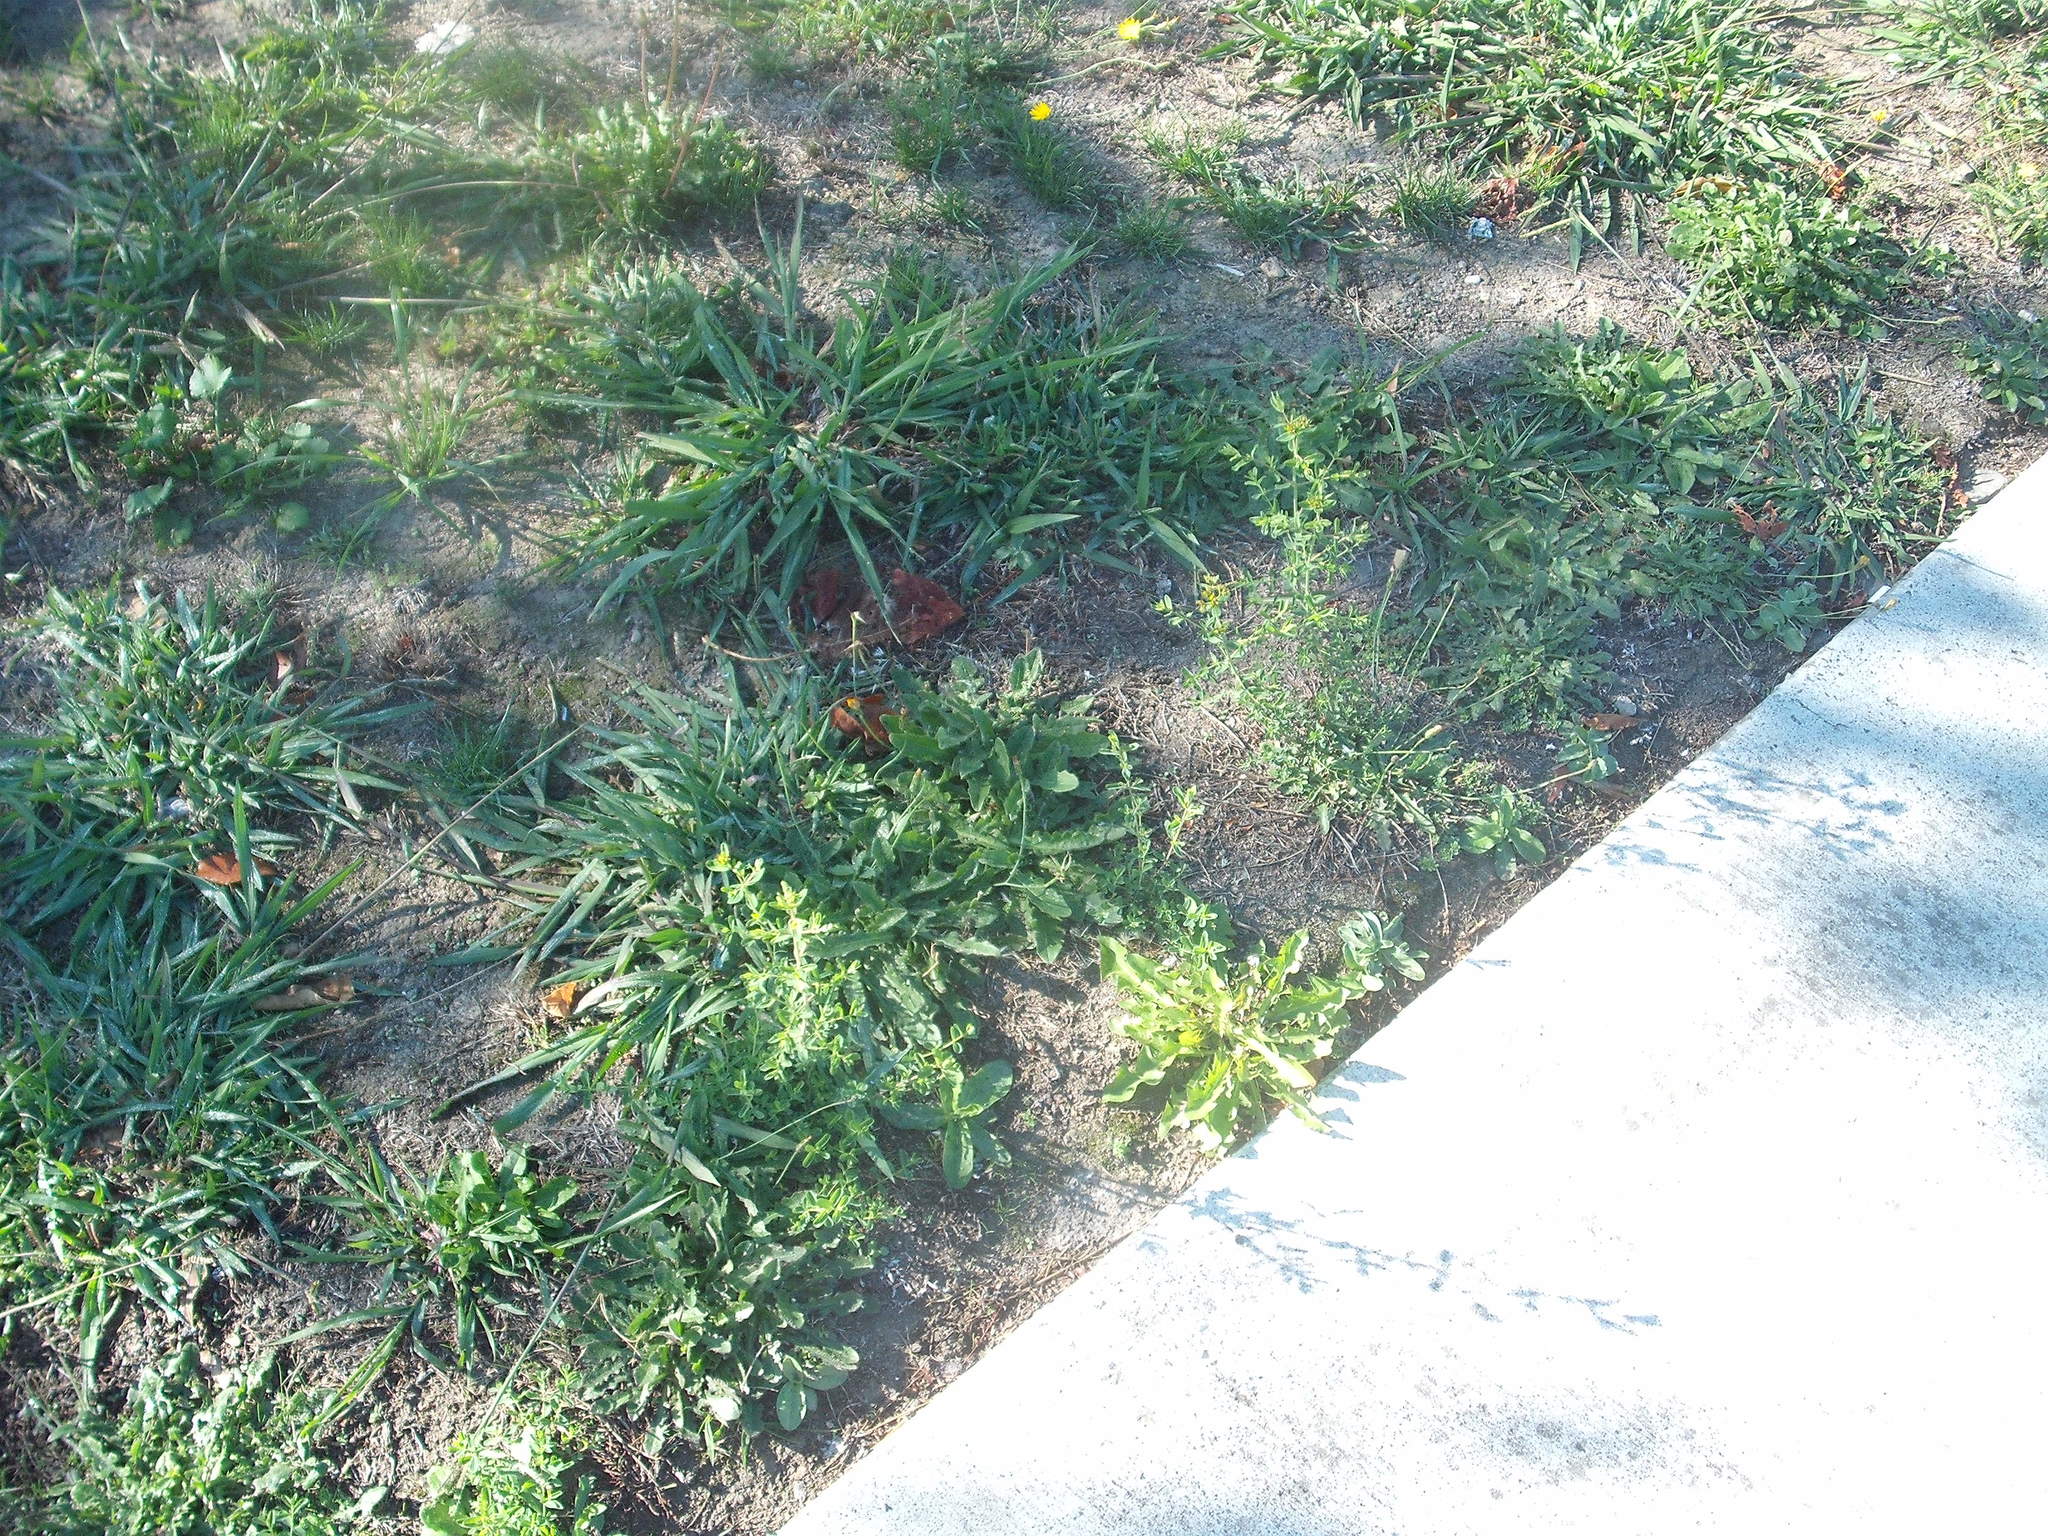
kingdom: Plantae
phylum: Tracheophyta
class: Magnoliopsida
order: Malpighiales
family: Hypericaceae
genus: Hypericum
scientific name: Hypericum perforatum
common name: Common st. johnswort
